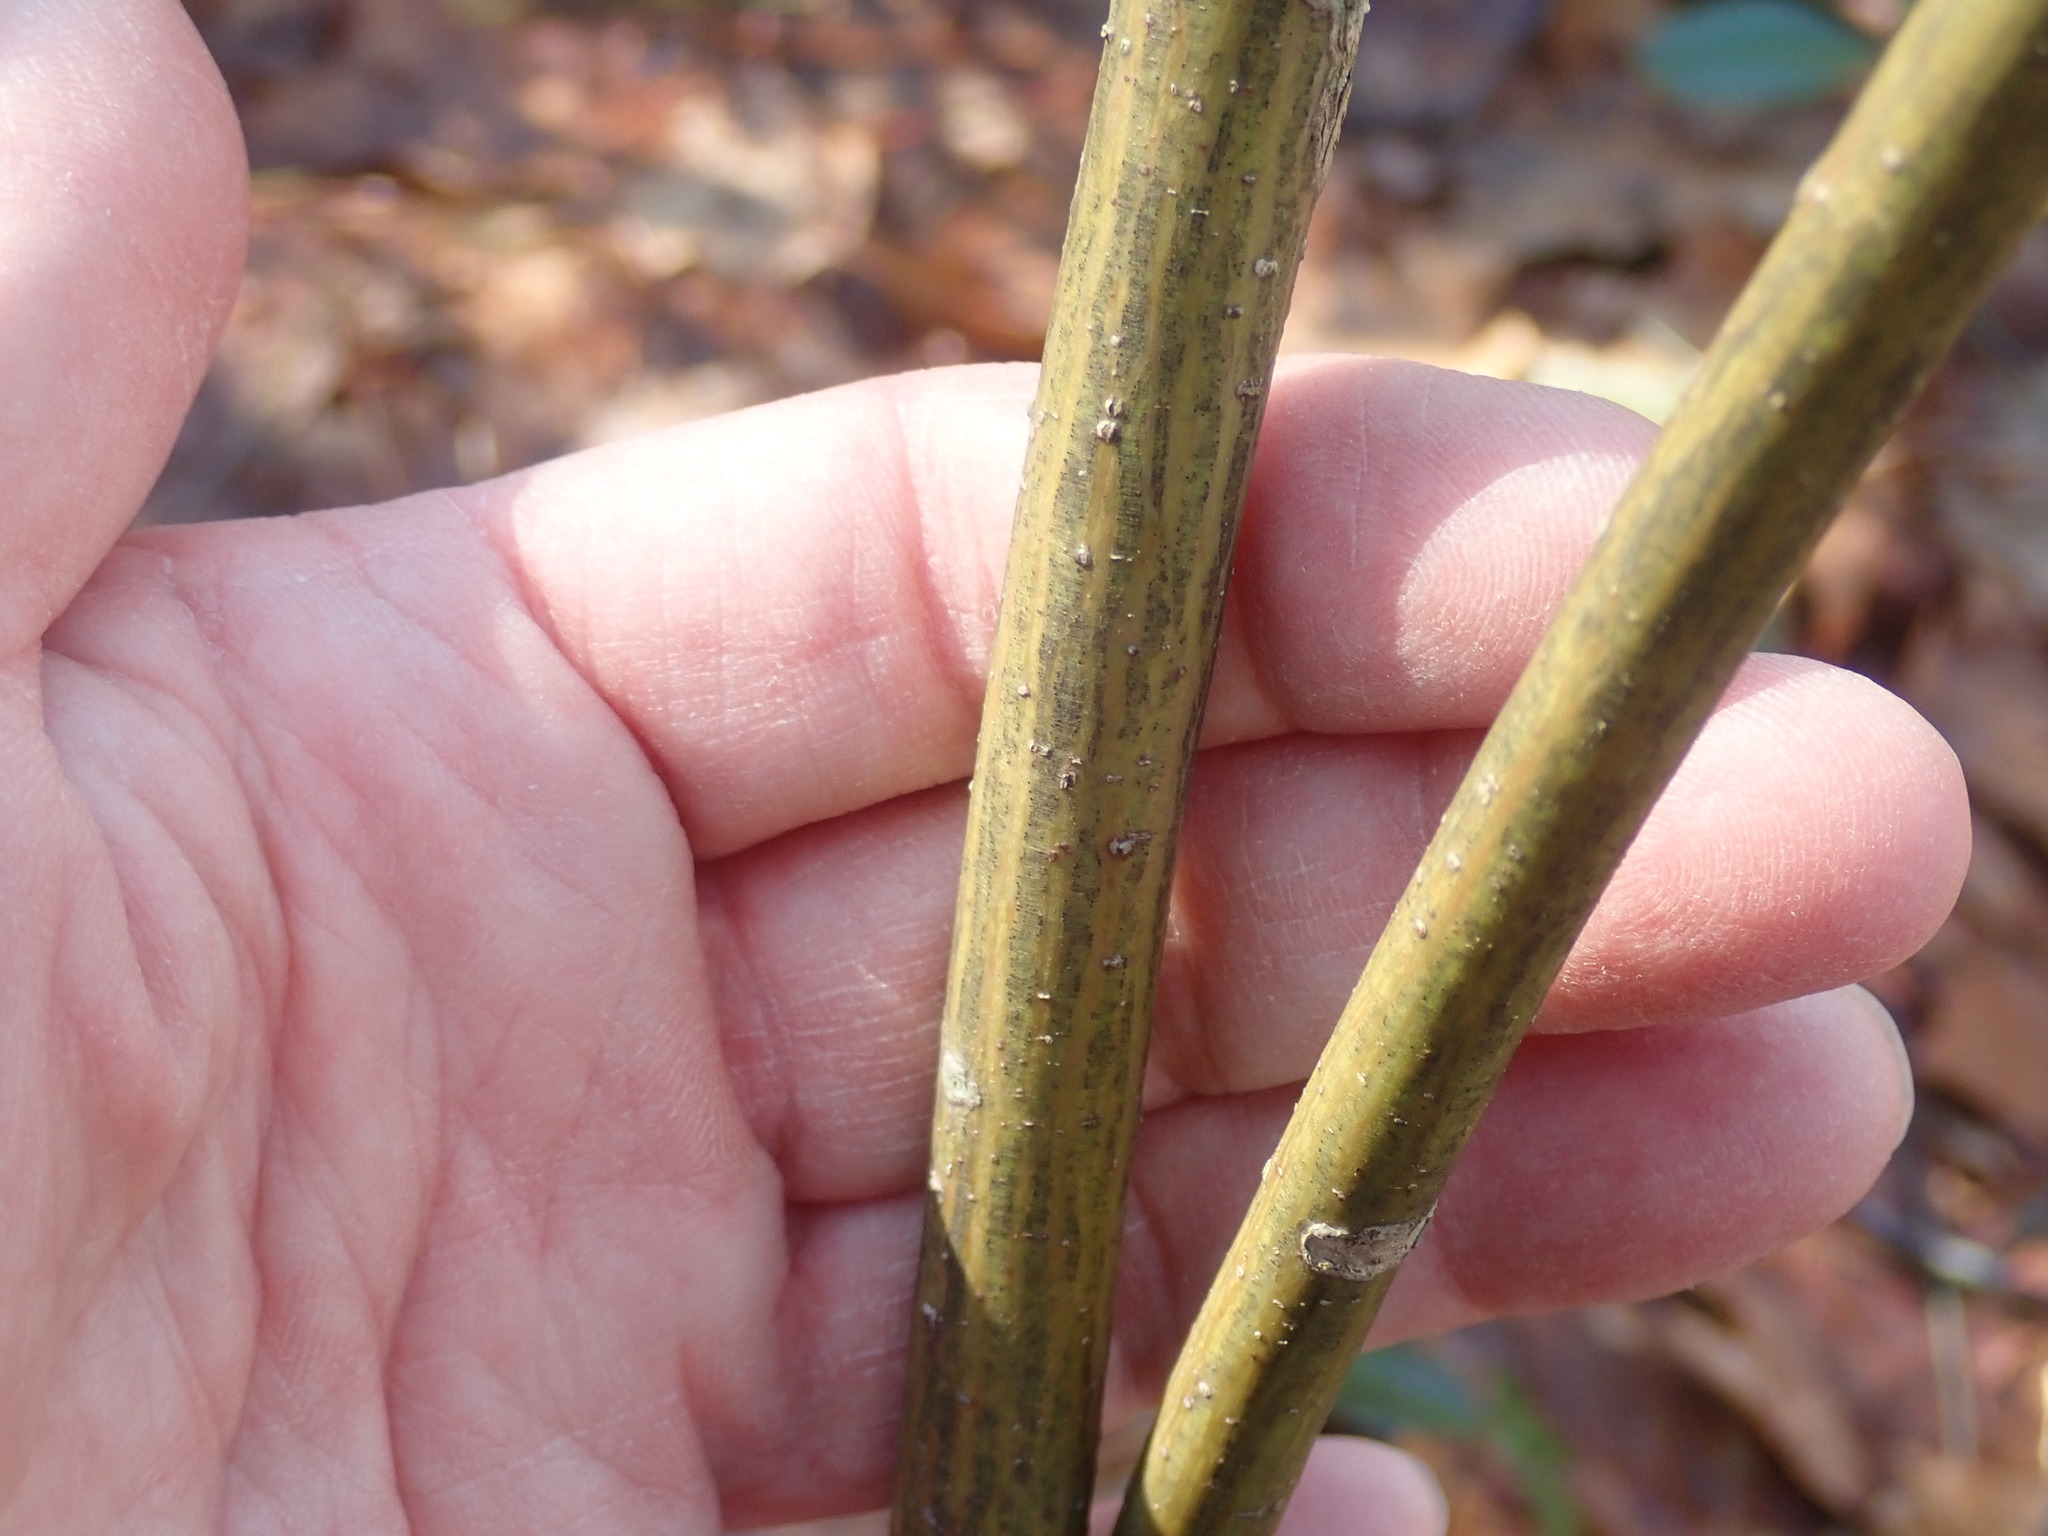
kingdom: Plantae
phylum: Tracheophyta
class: Magnoliopsida
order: Sapindales
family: Sapindaceae
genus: Acer
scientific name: Acer pensylvanicum
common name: Moosewood
